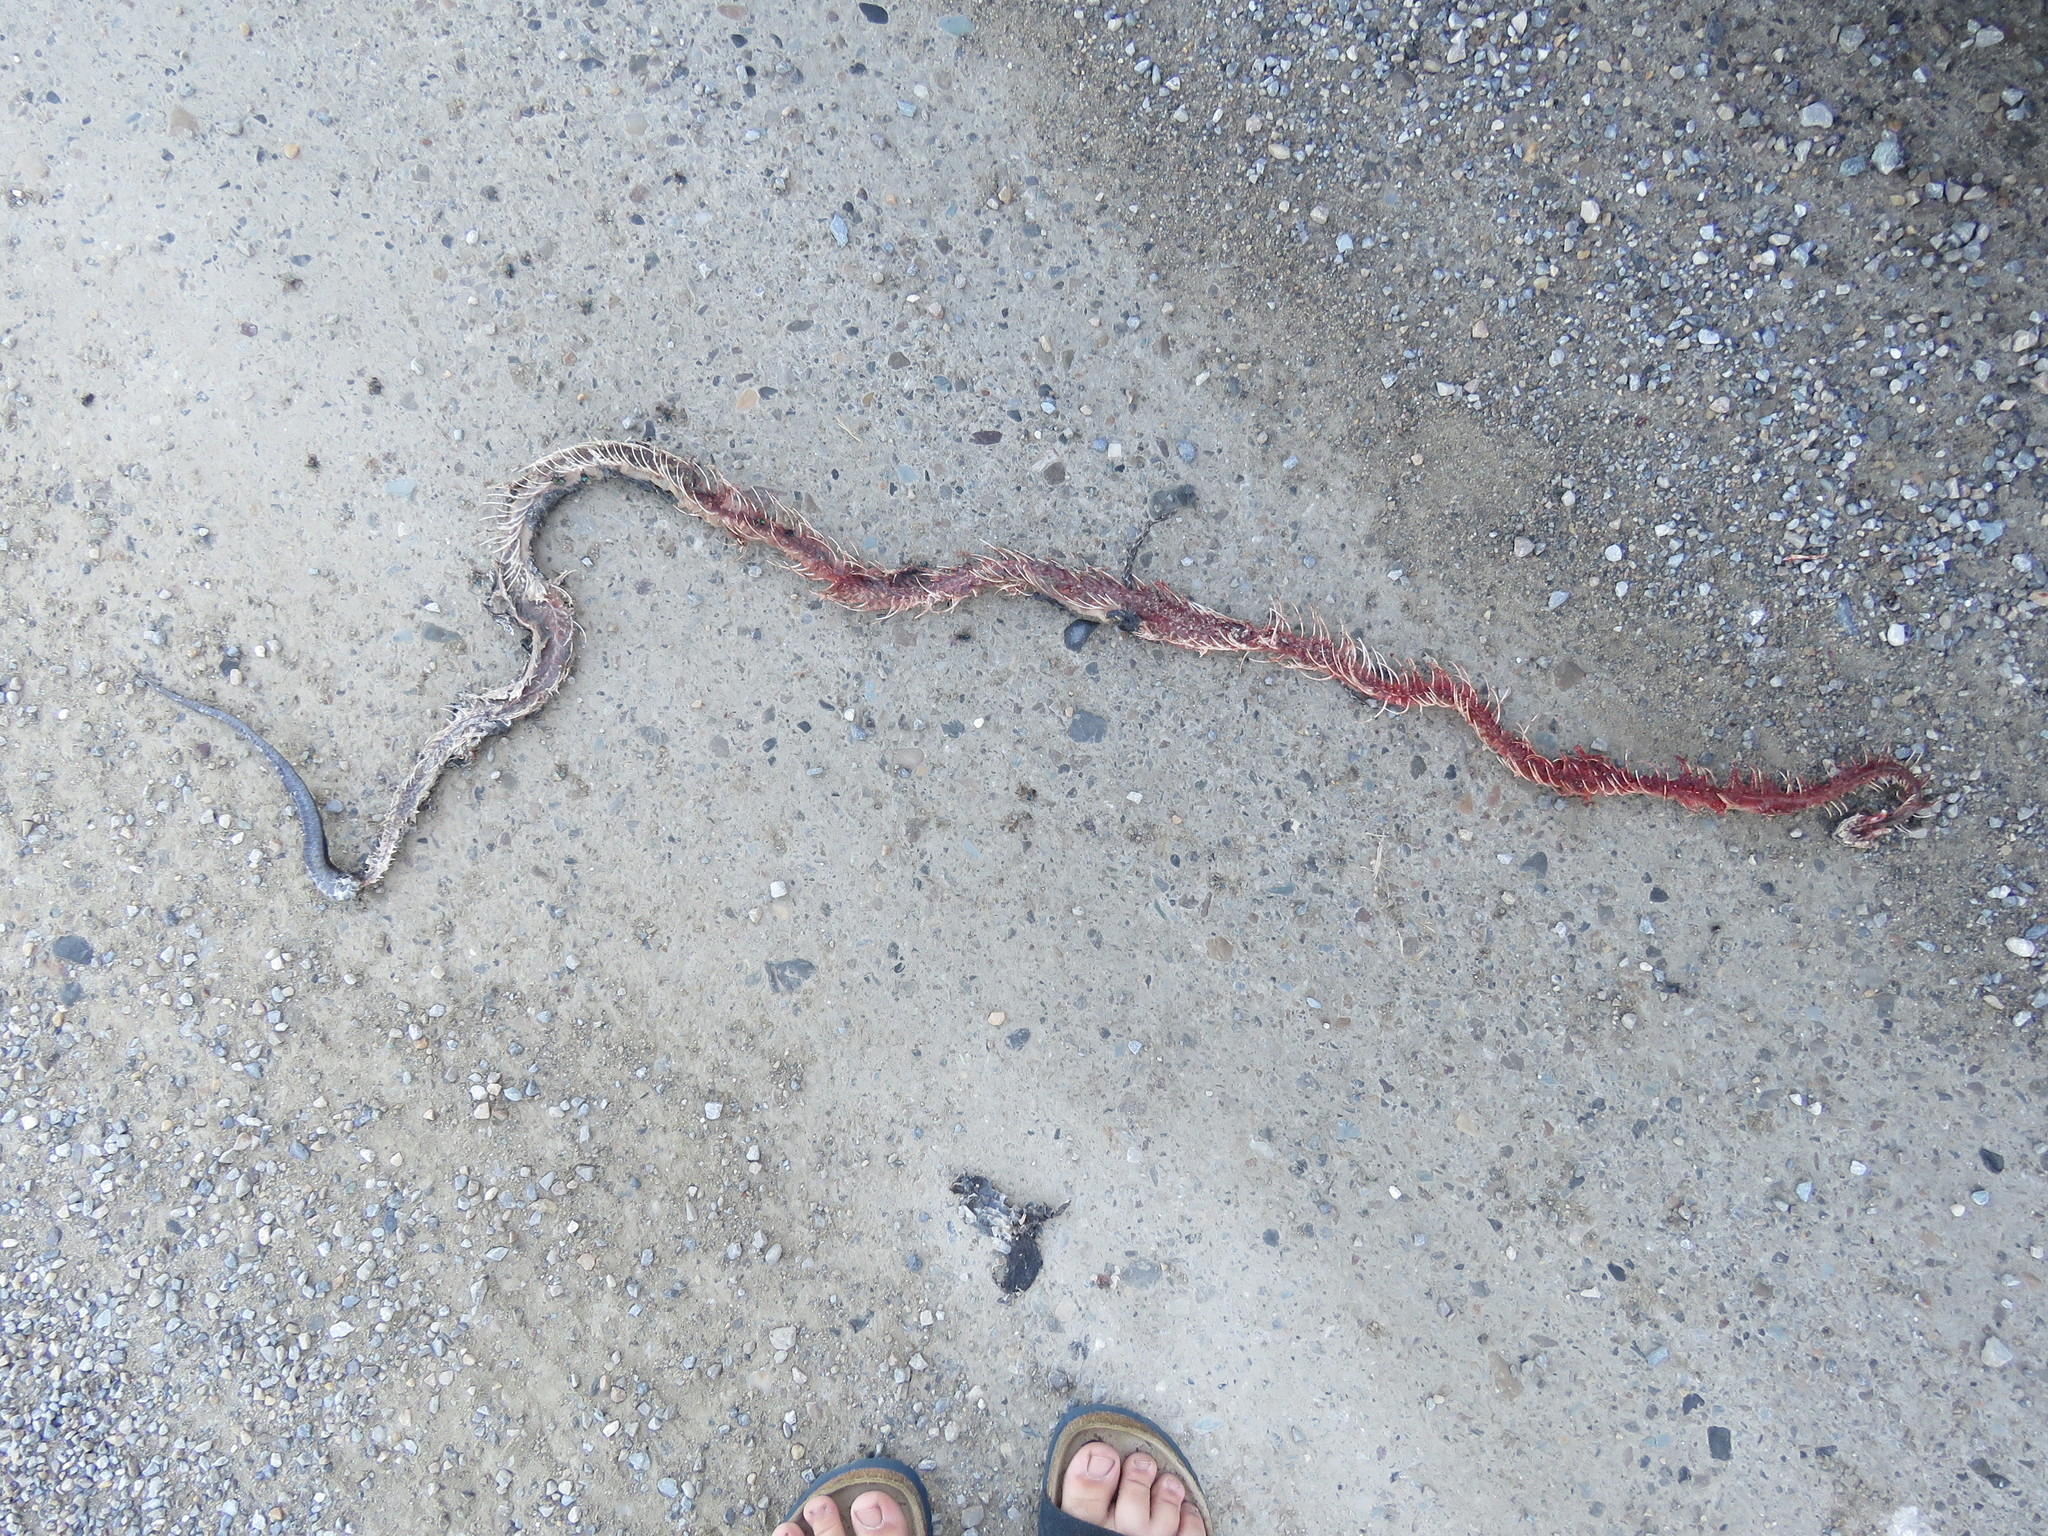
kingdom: Animalia
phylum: Chordata
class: Squamata
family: Colubridae
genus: Pantherophis
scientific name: Pantherophis alleghaniensis
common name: Eastern rat snake
